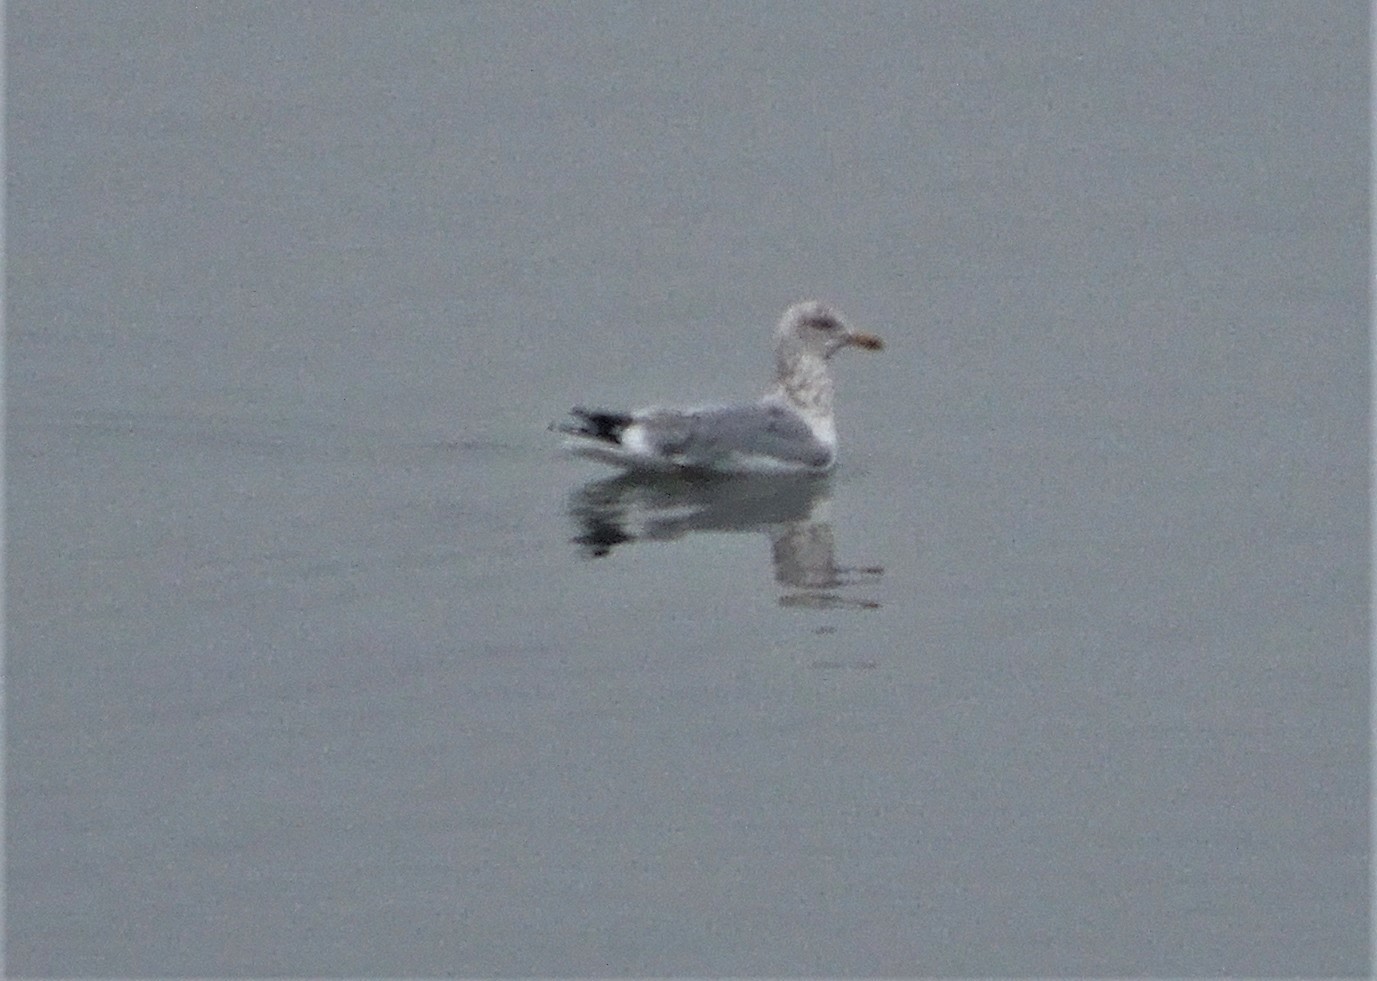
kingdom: Animalia
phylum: Chordata
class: Aves
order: Charadriiformes
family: Laridae
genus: Larus
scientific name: Larus argentatus
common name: Herring gull
